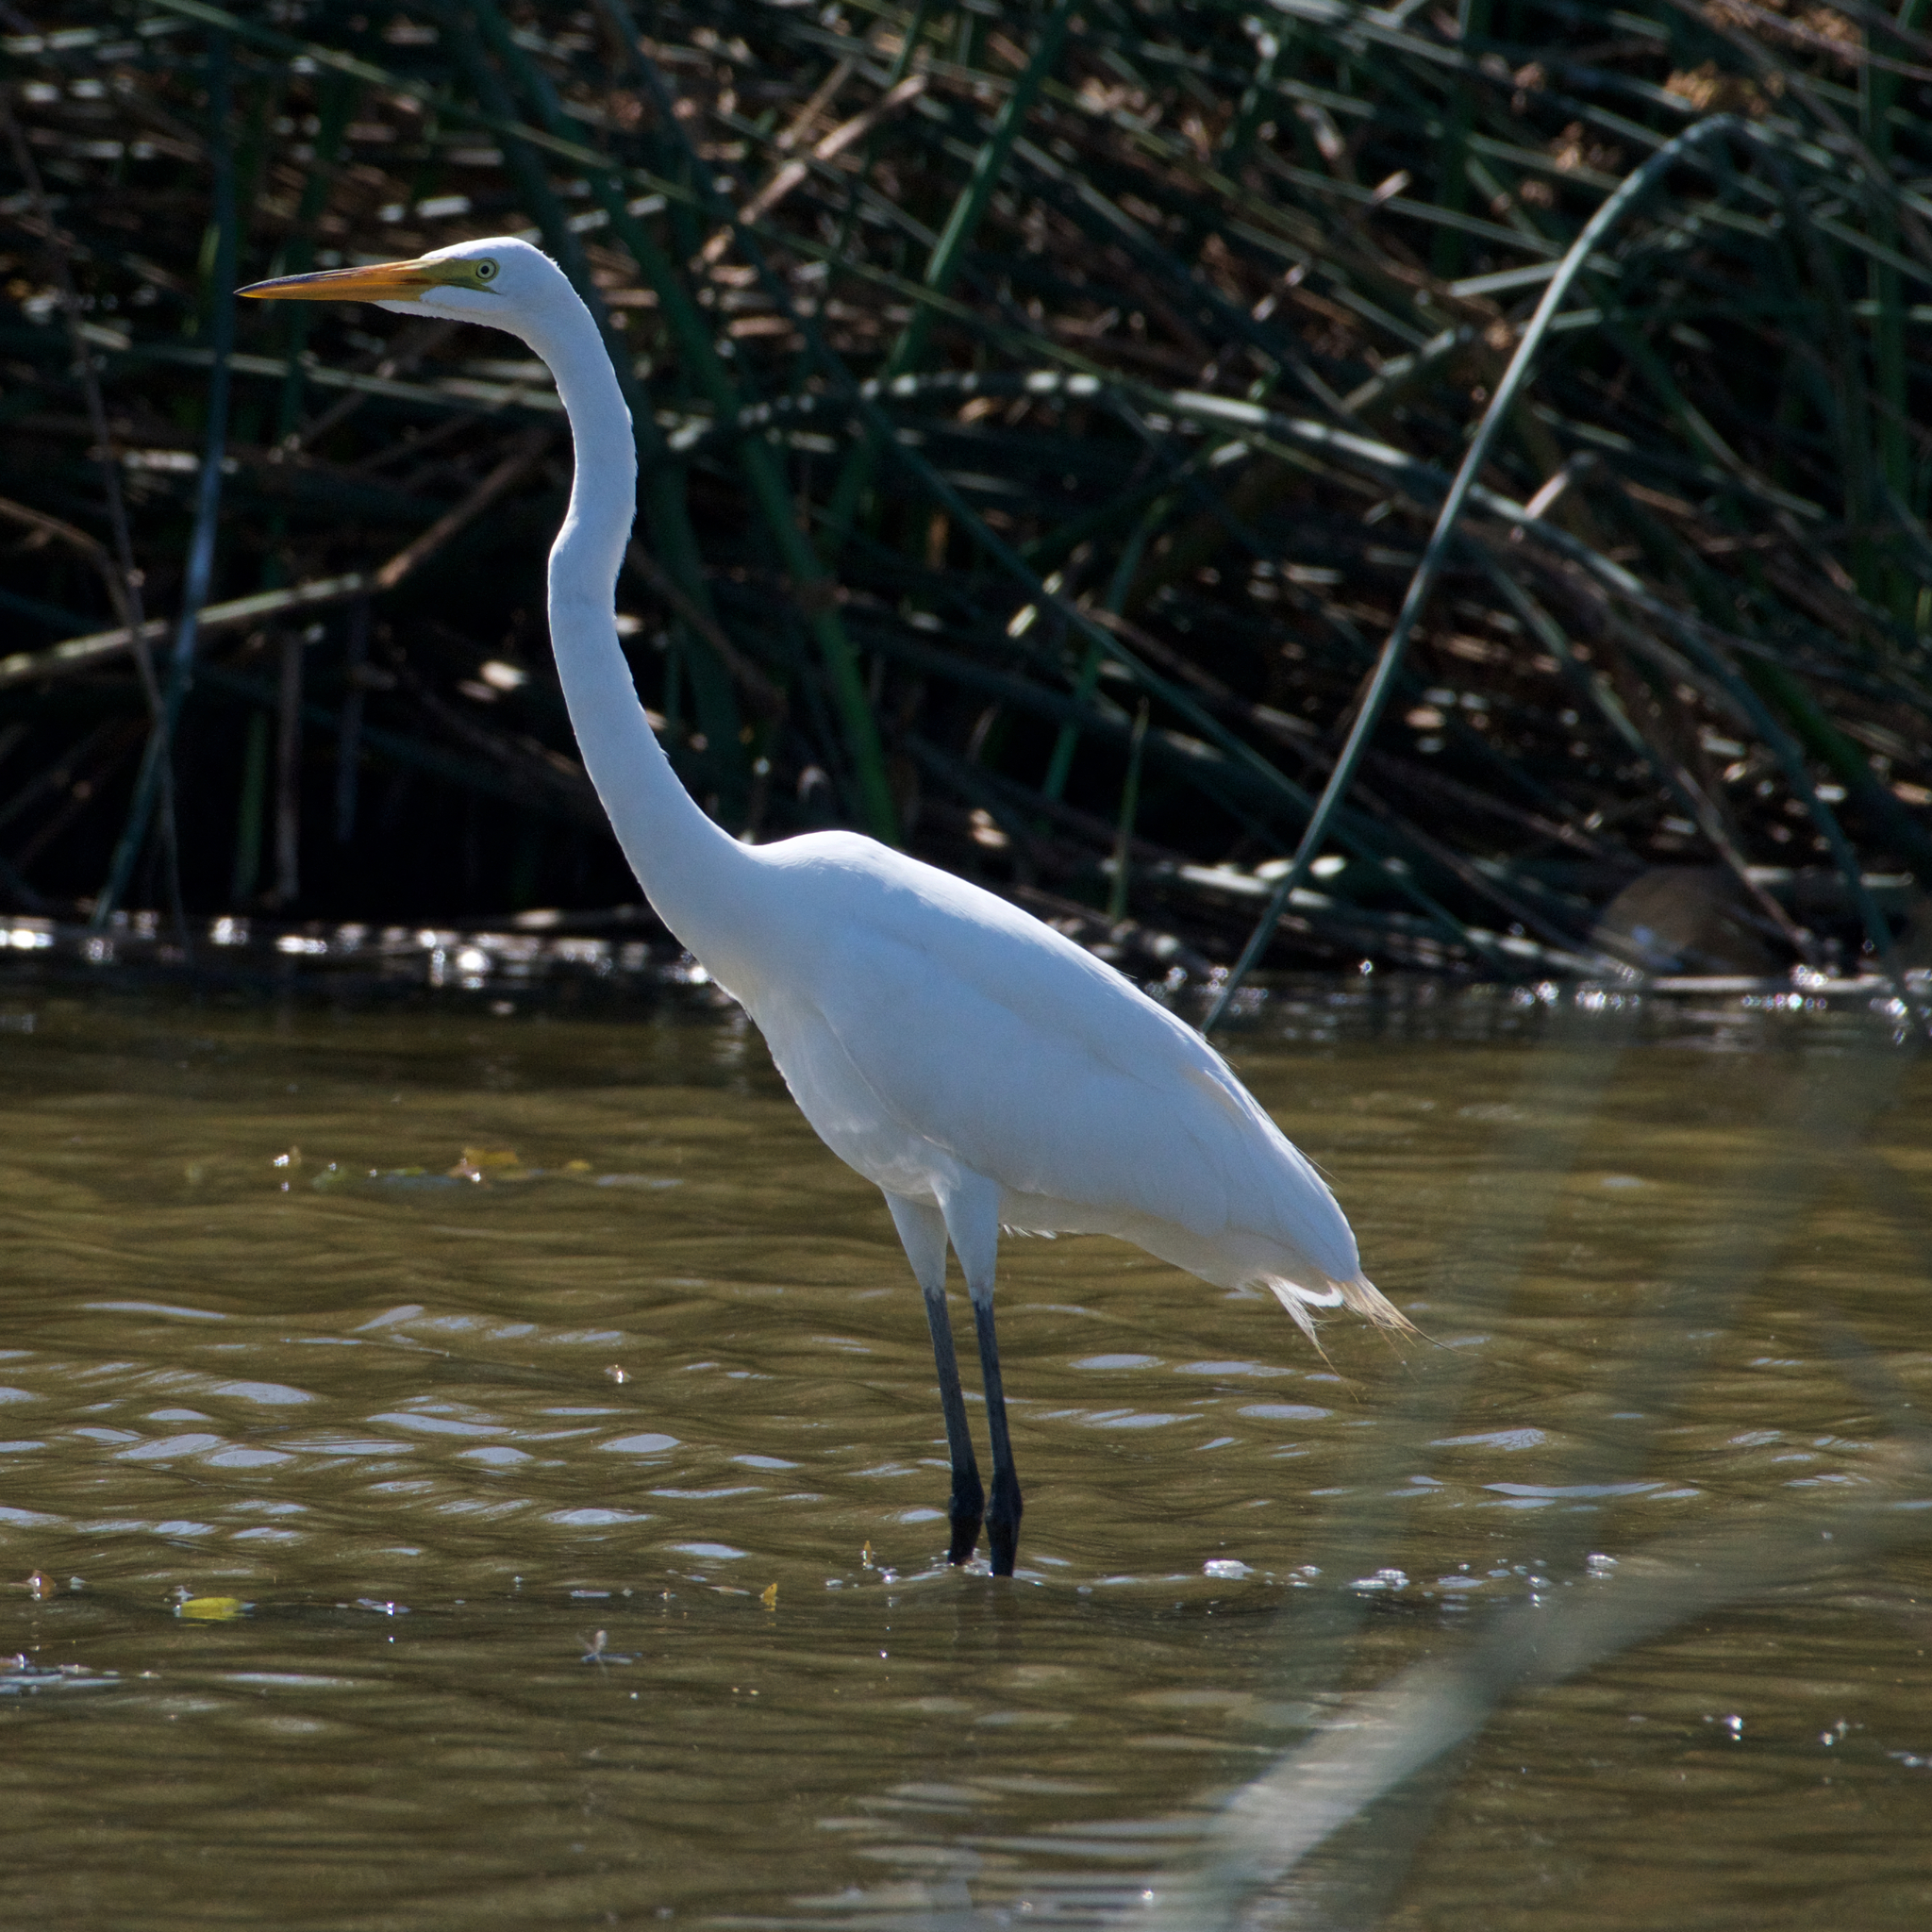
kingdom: Animalia
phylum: Chordata
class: Aves
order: Pelecaniformes
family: Ardeidae
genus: Ardea
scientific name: Ardea alba
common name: Great egret
